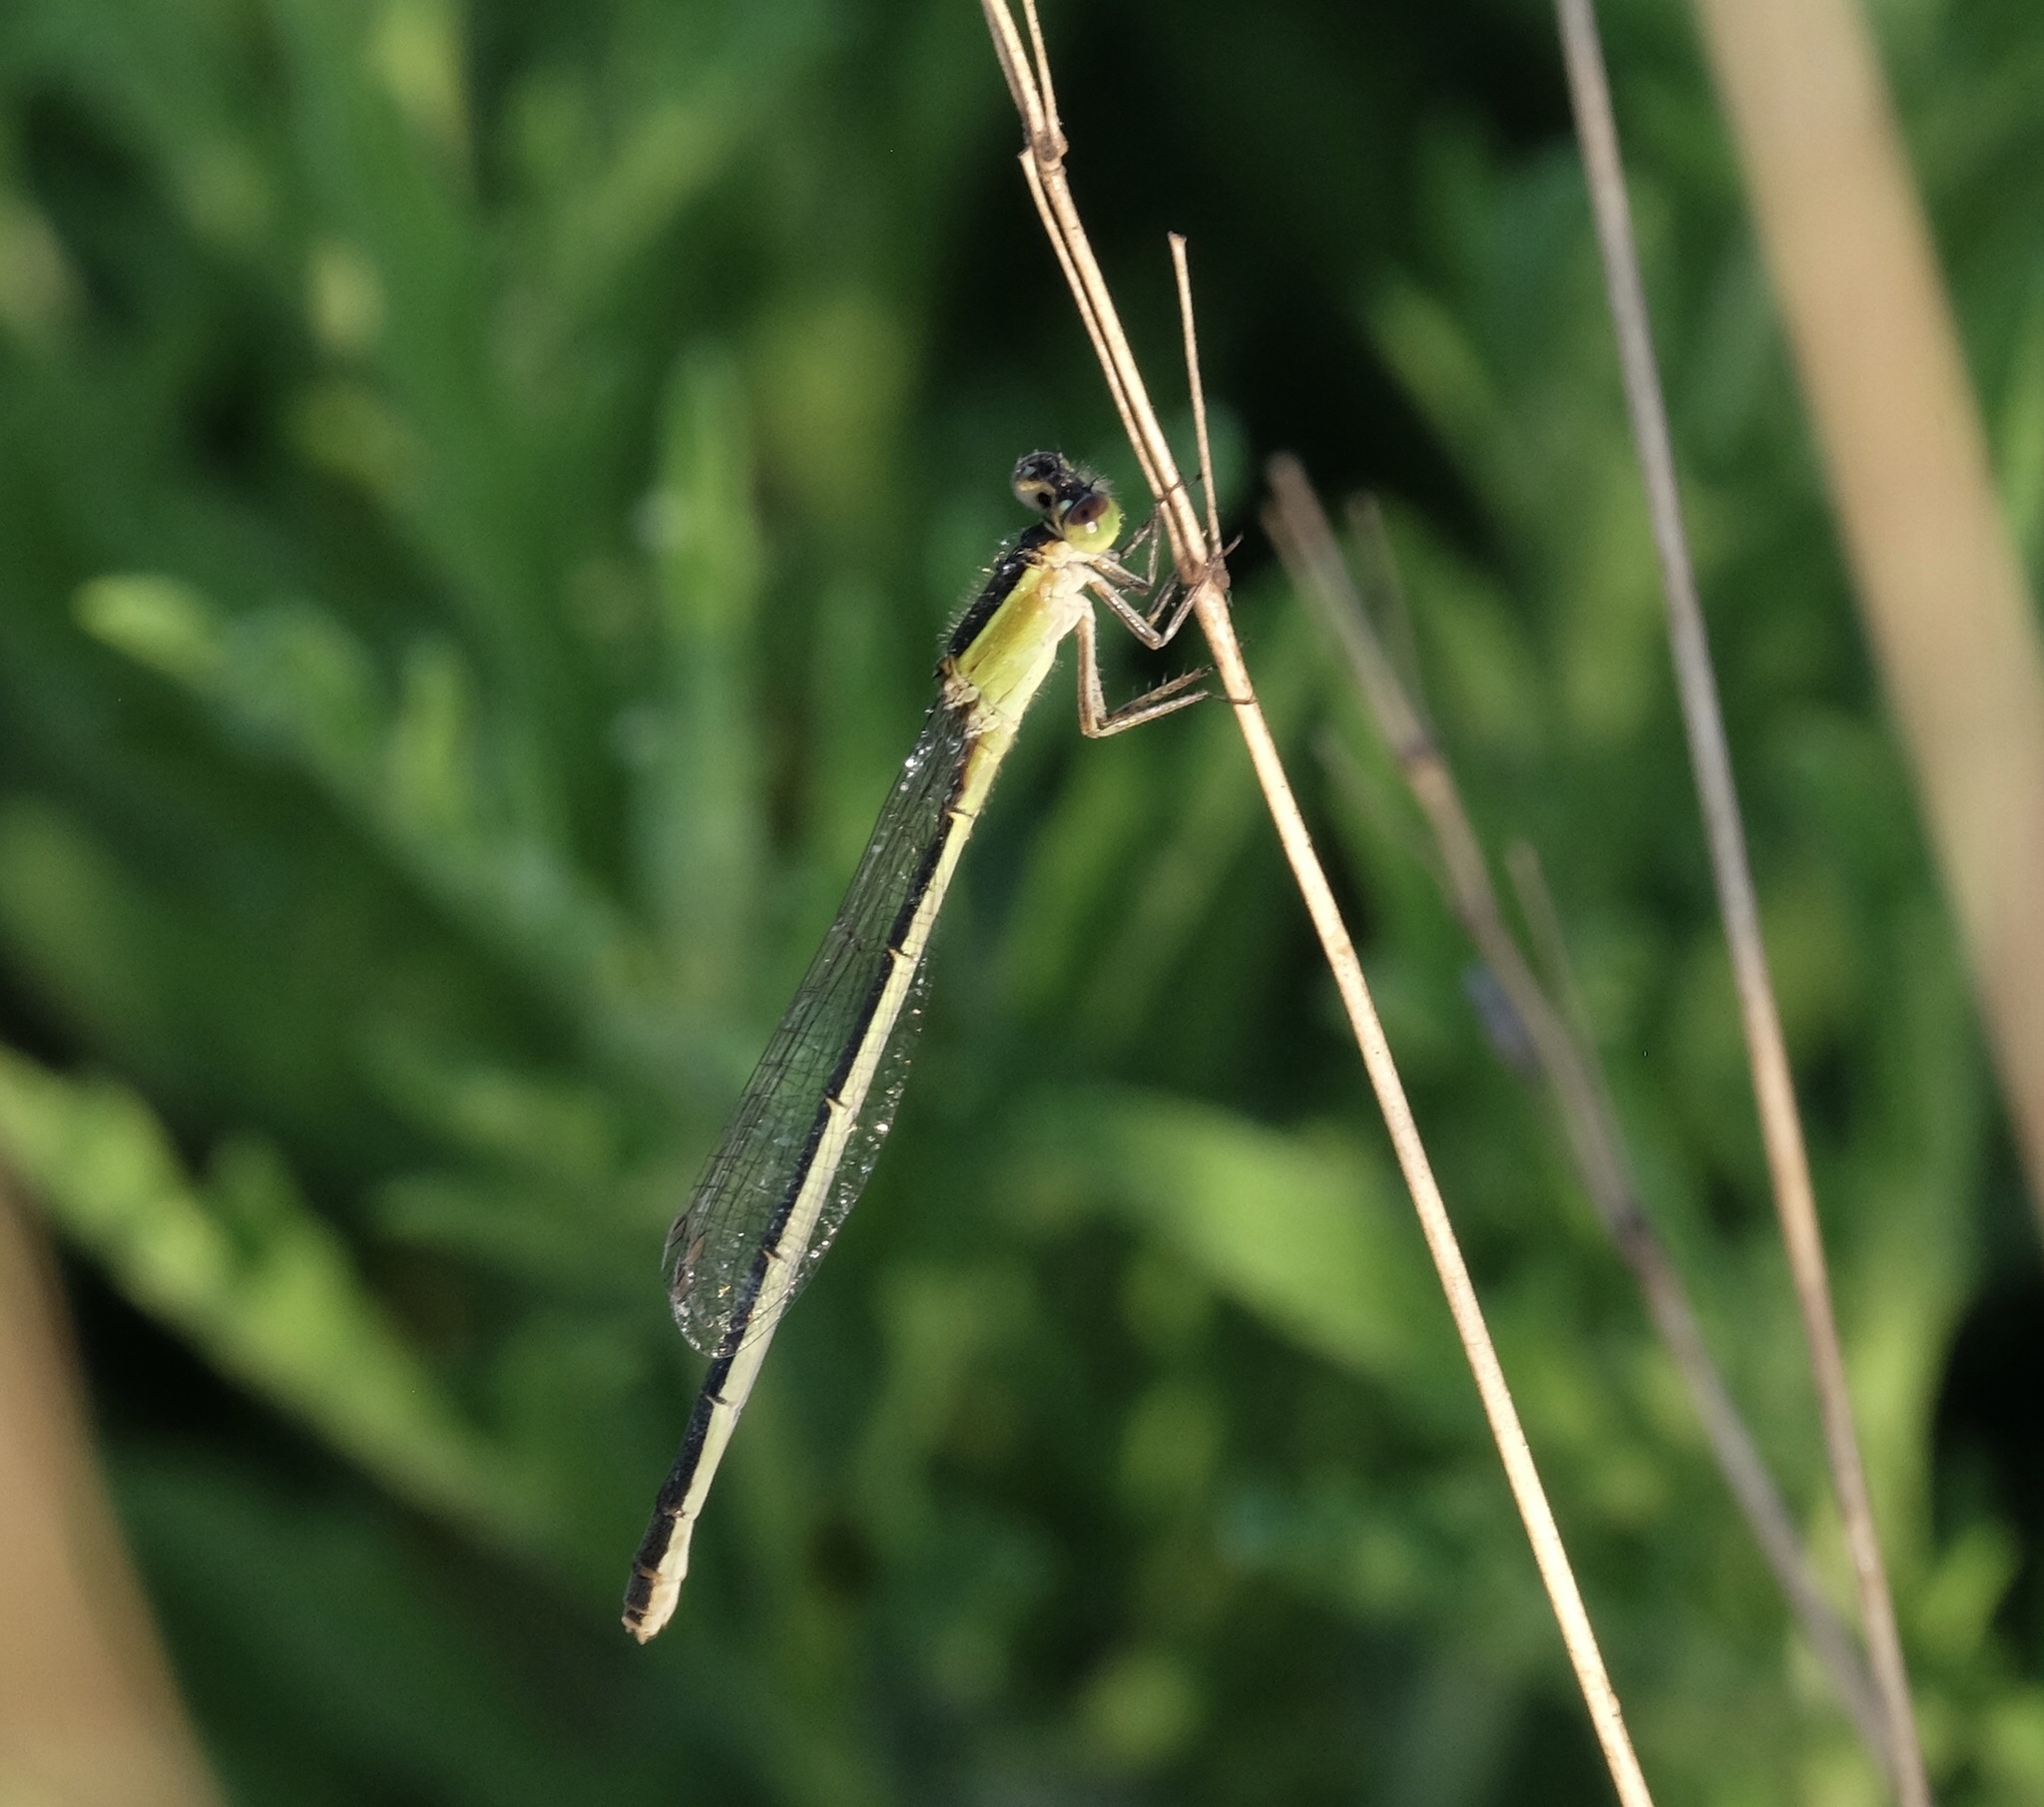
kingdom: Animalia
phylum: Arthropoda
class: Insecta
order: Odonata
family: Coenagrionidae
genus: Ischnura
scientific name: Ischnura ramburii
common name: Rambur's forktail
